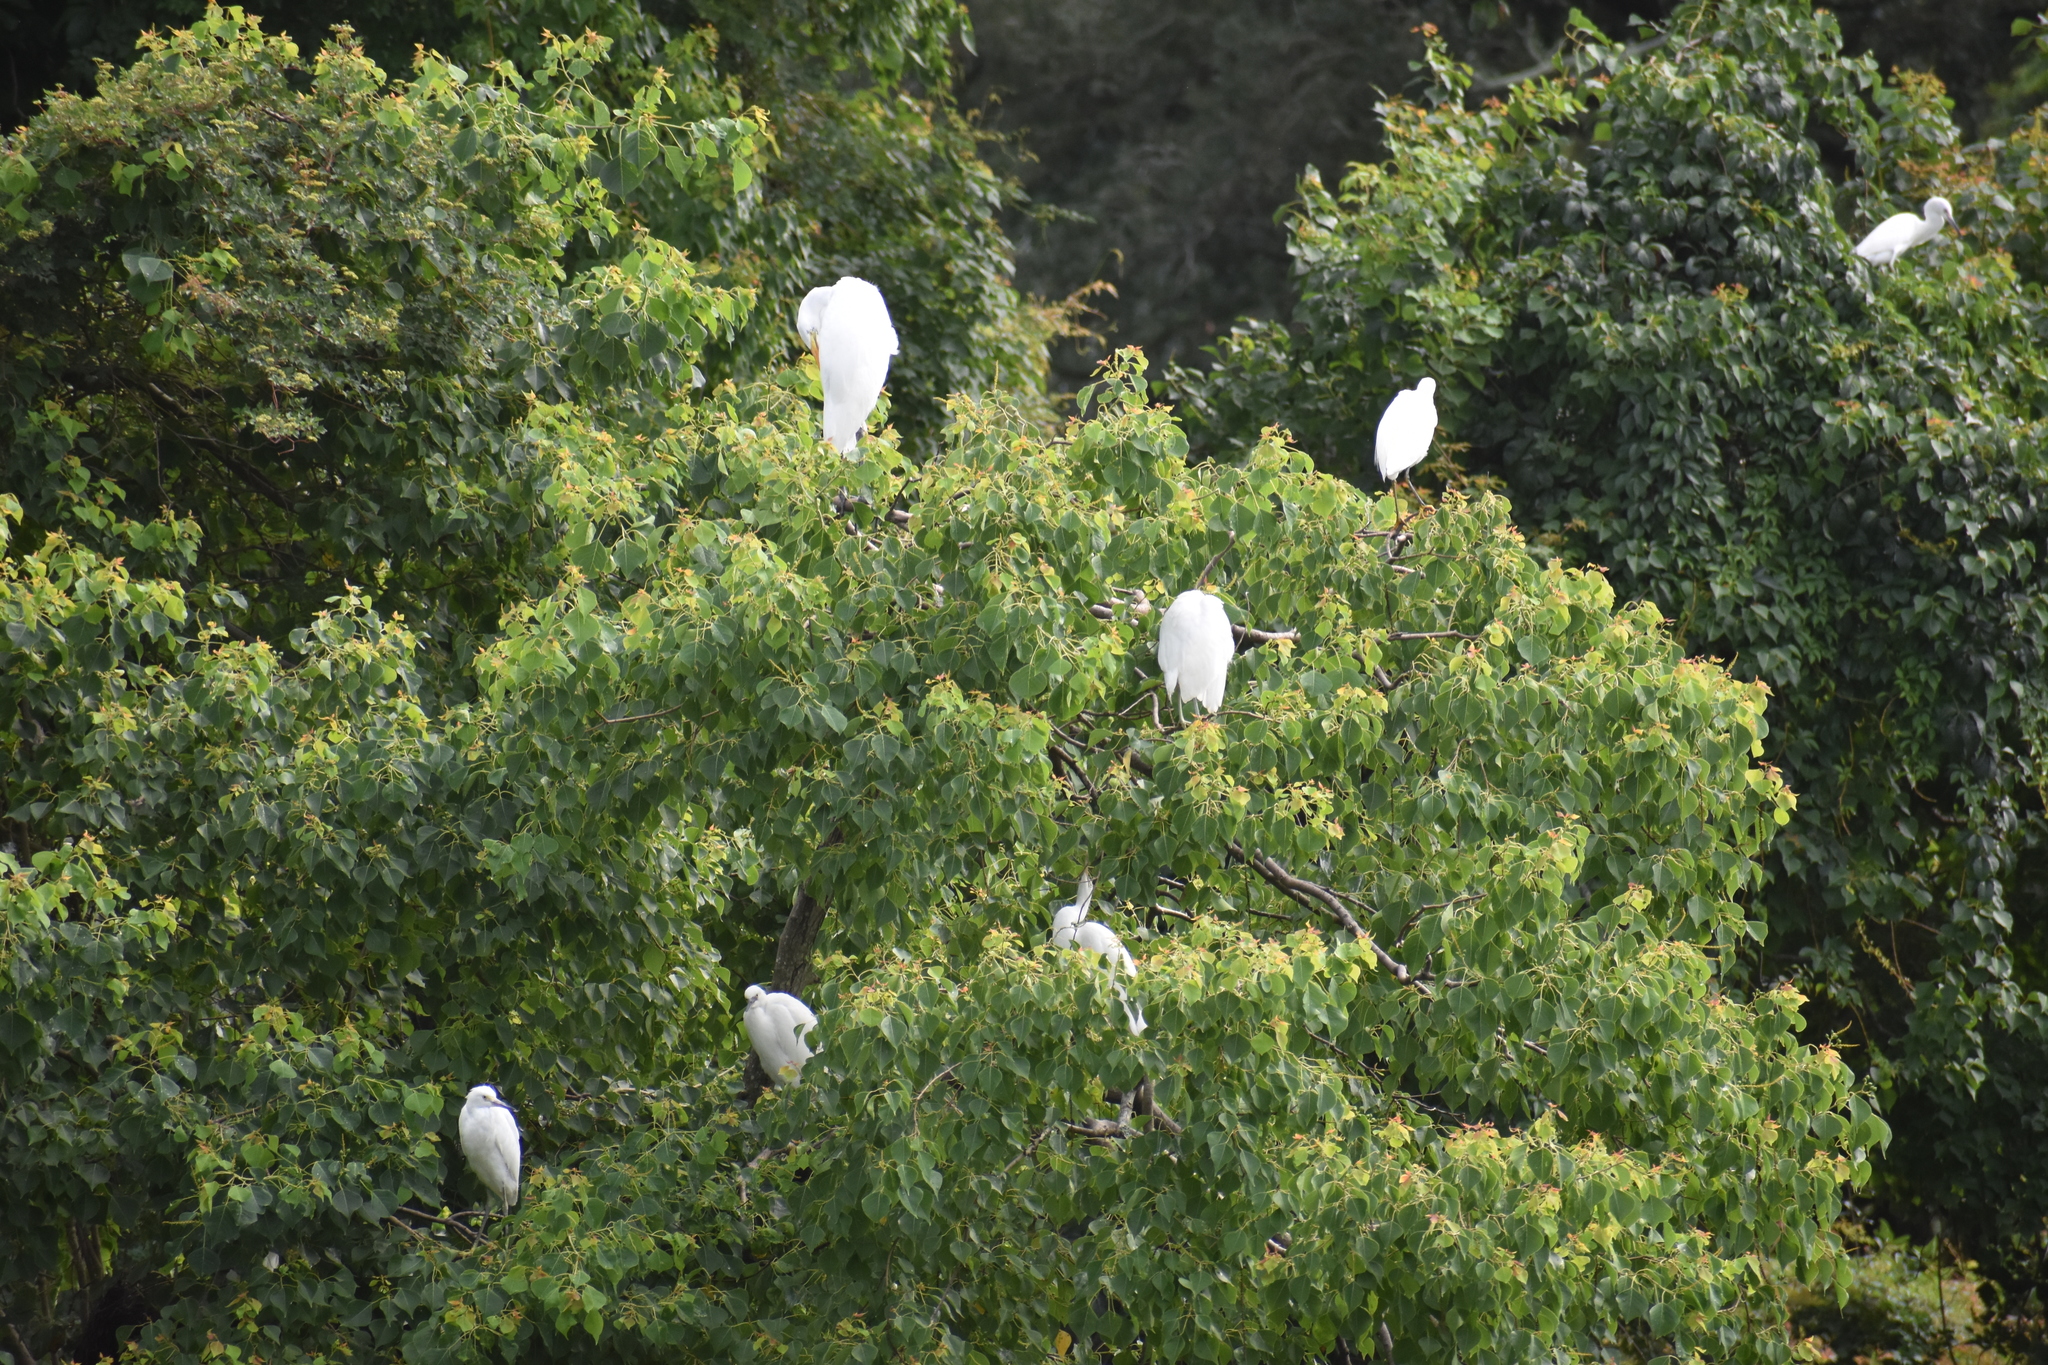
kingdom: Animalia
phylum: Chordata
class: Aves
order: Pelecaniformes
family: Ardeidae
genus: Ardea
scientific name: Ardea alba
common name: Great egret
